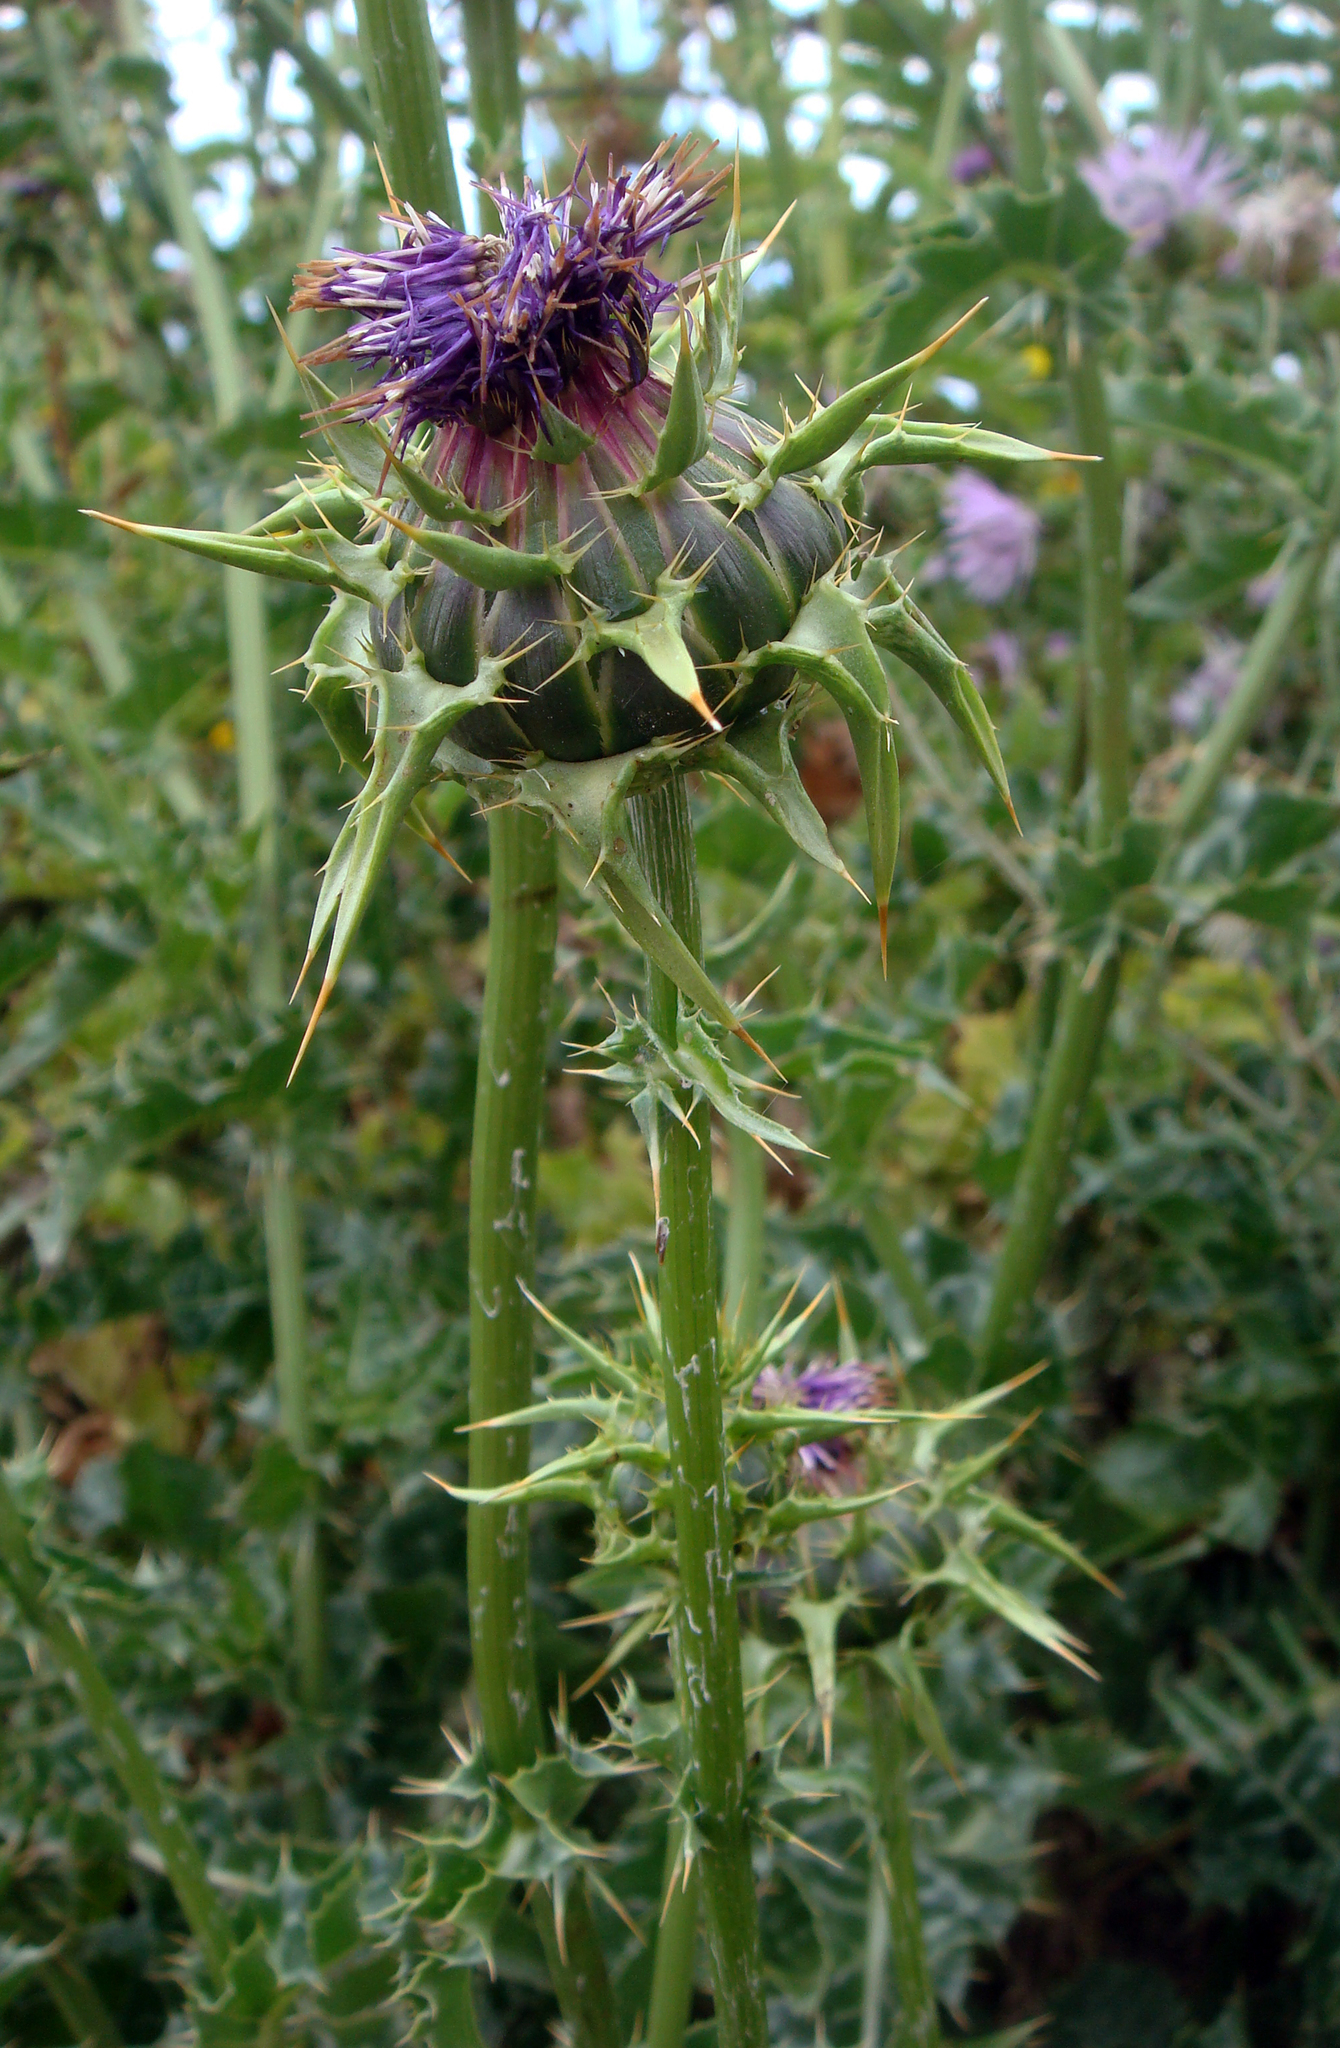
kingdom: Plantae
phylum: Tracheophyta
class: Magnoliopsida
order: Asterales
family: Asteraceae
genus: Silybum
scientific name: Silybum marianum
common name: Milk thistle
